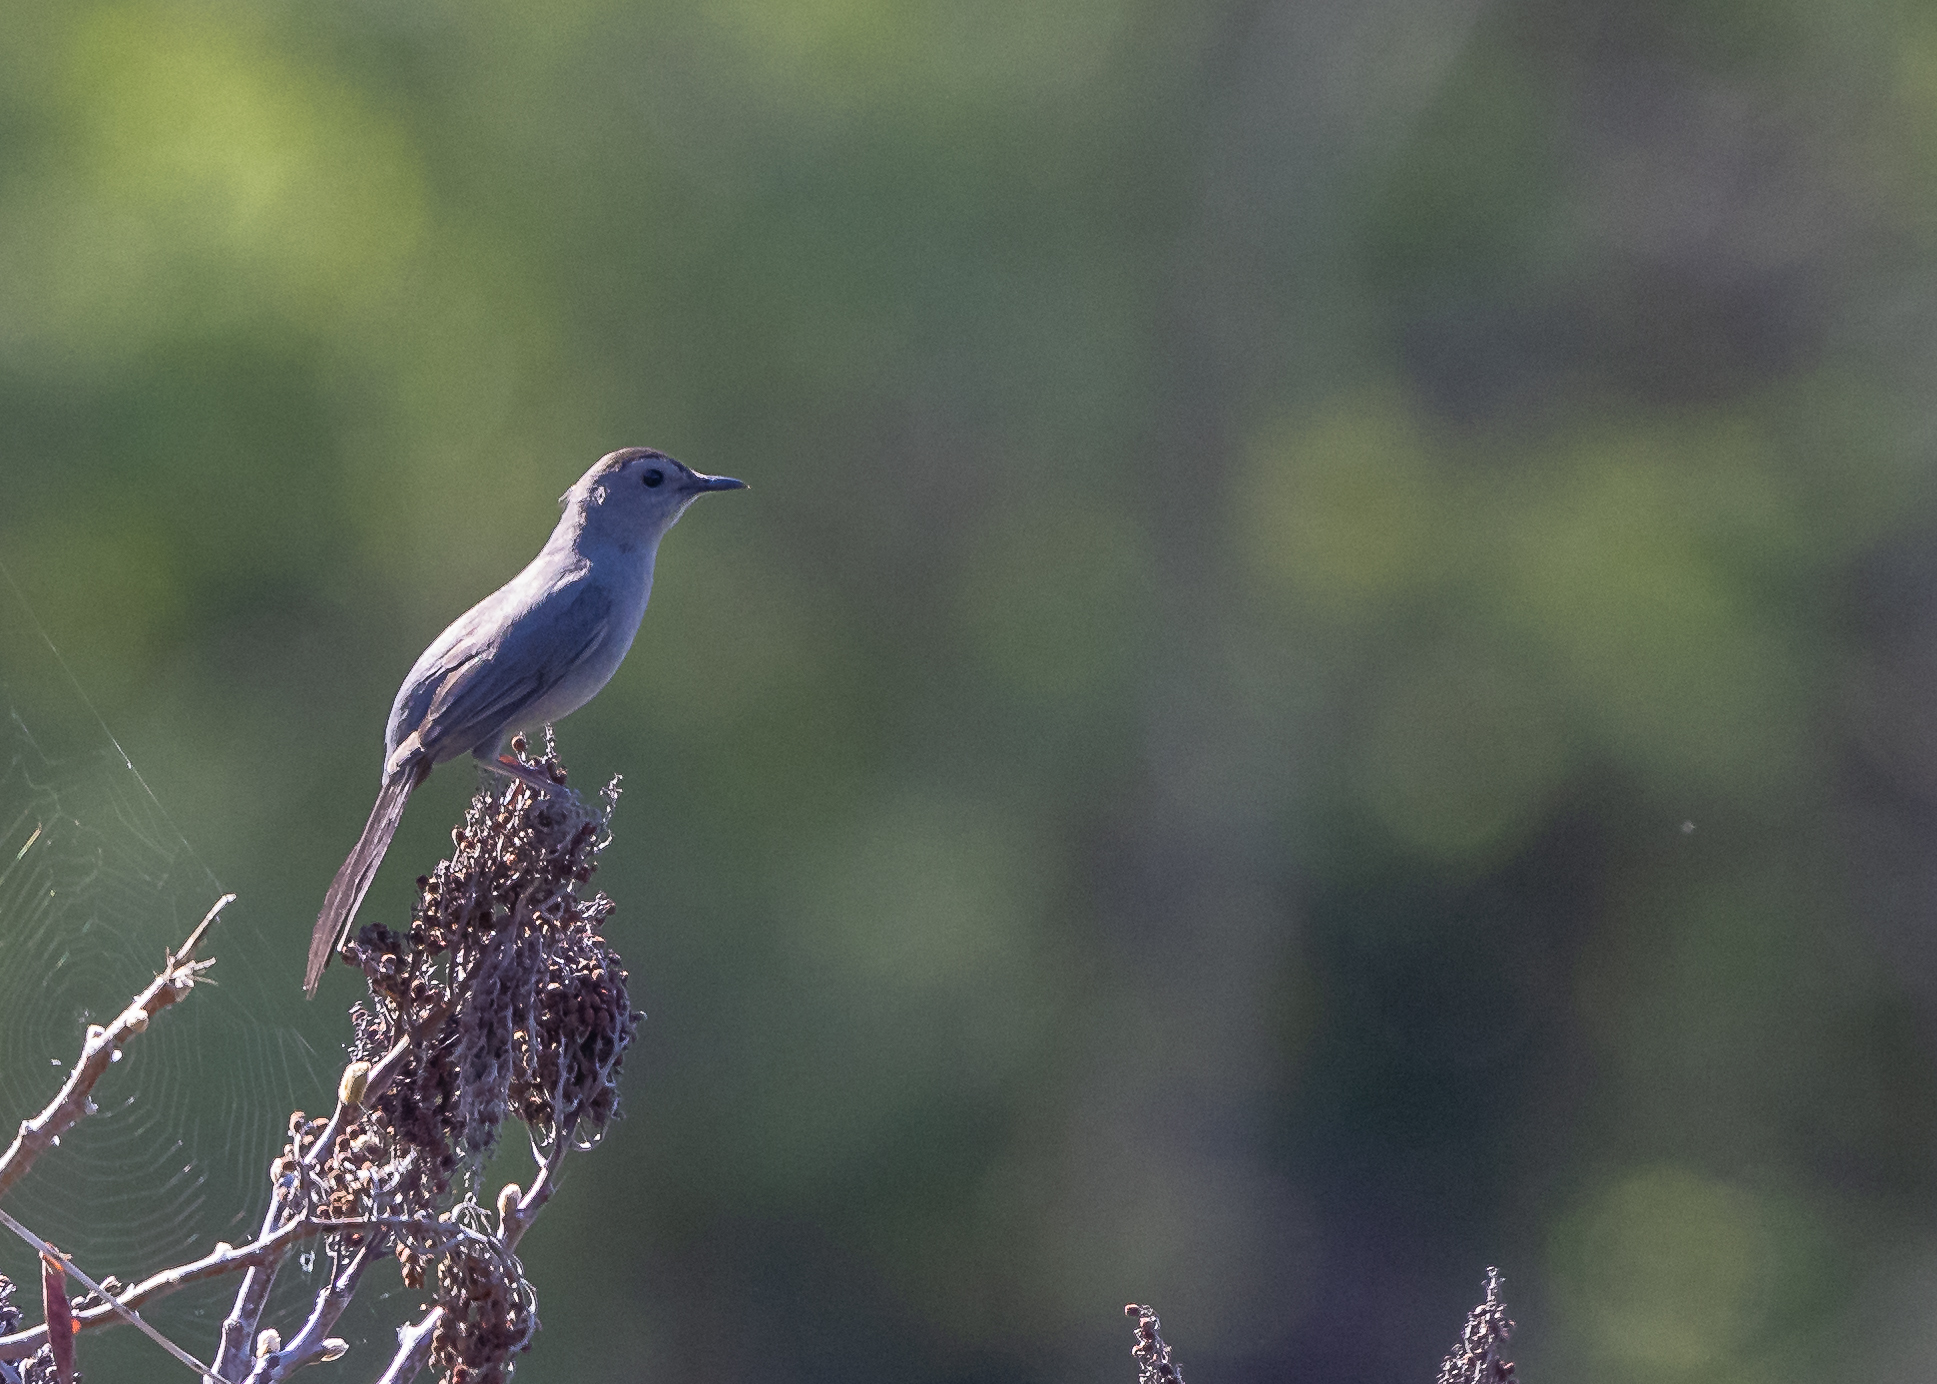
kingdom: Animalia
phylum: Chordata
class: Aves
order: Passeriformes
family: Mimidae
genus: Dumetella
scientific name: Dumetella carolinensis
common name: Gray catbird
